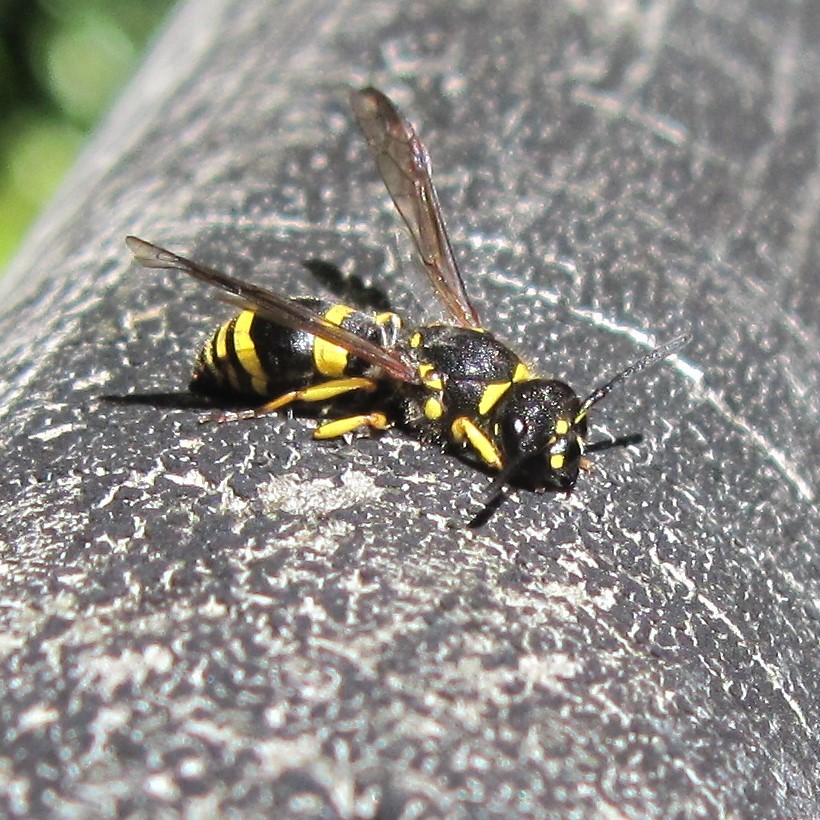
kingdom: Animalia
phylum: Arthropoda
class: Insecta
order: Hymenoptera
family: Vespidae
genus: Ancistrocerus
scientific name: Ancistrocerus gazella
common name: European tube wasp
